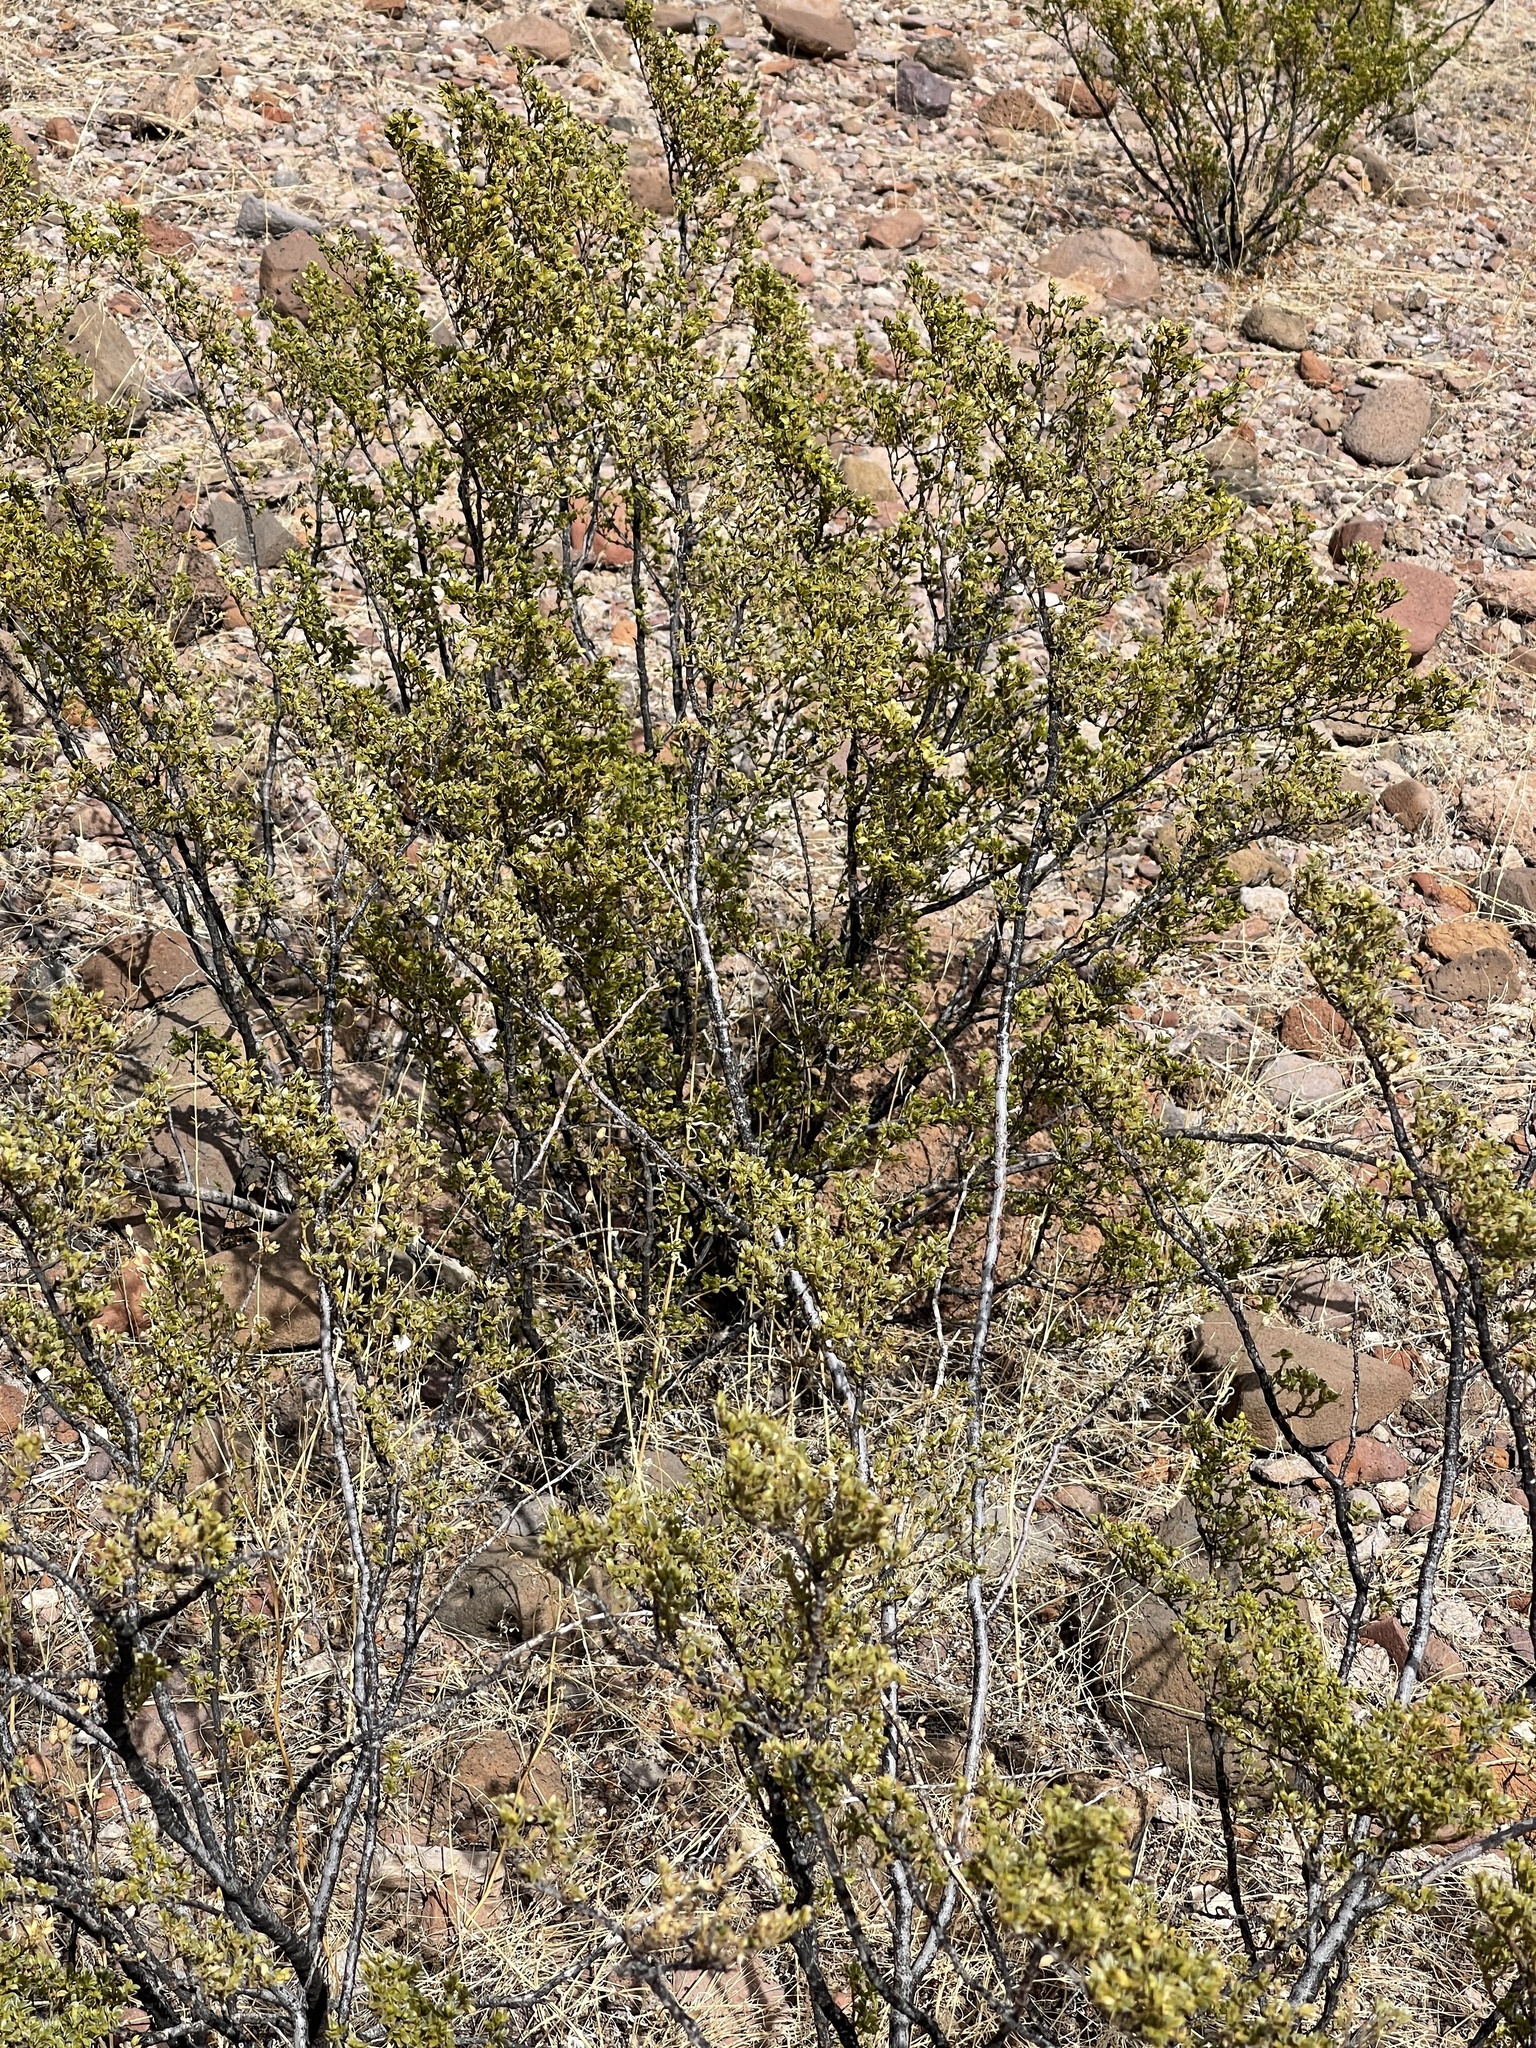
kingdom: Plantae
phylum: Tracheophyta
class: Magnoliopsida
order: Zygophyllales
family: Zygophyllaceae
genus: Larrea
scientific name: Larrea tridentata
